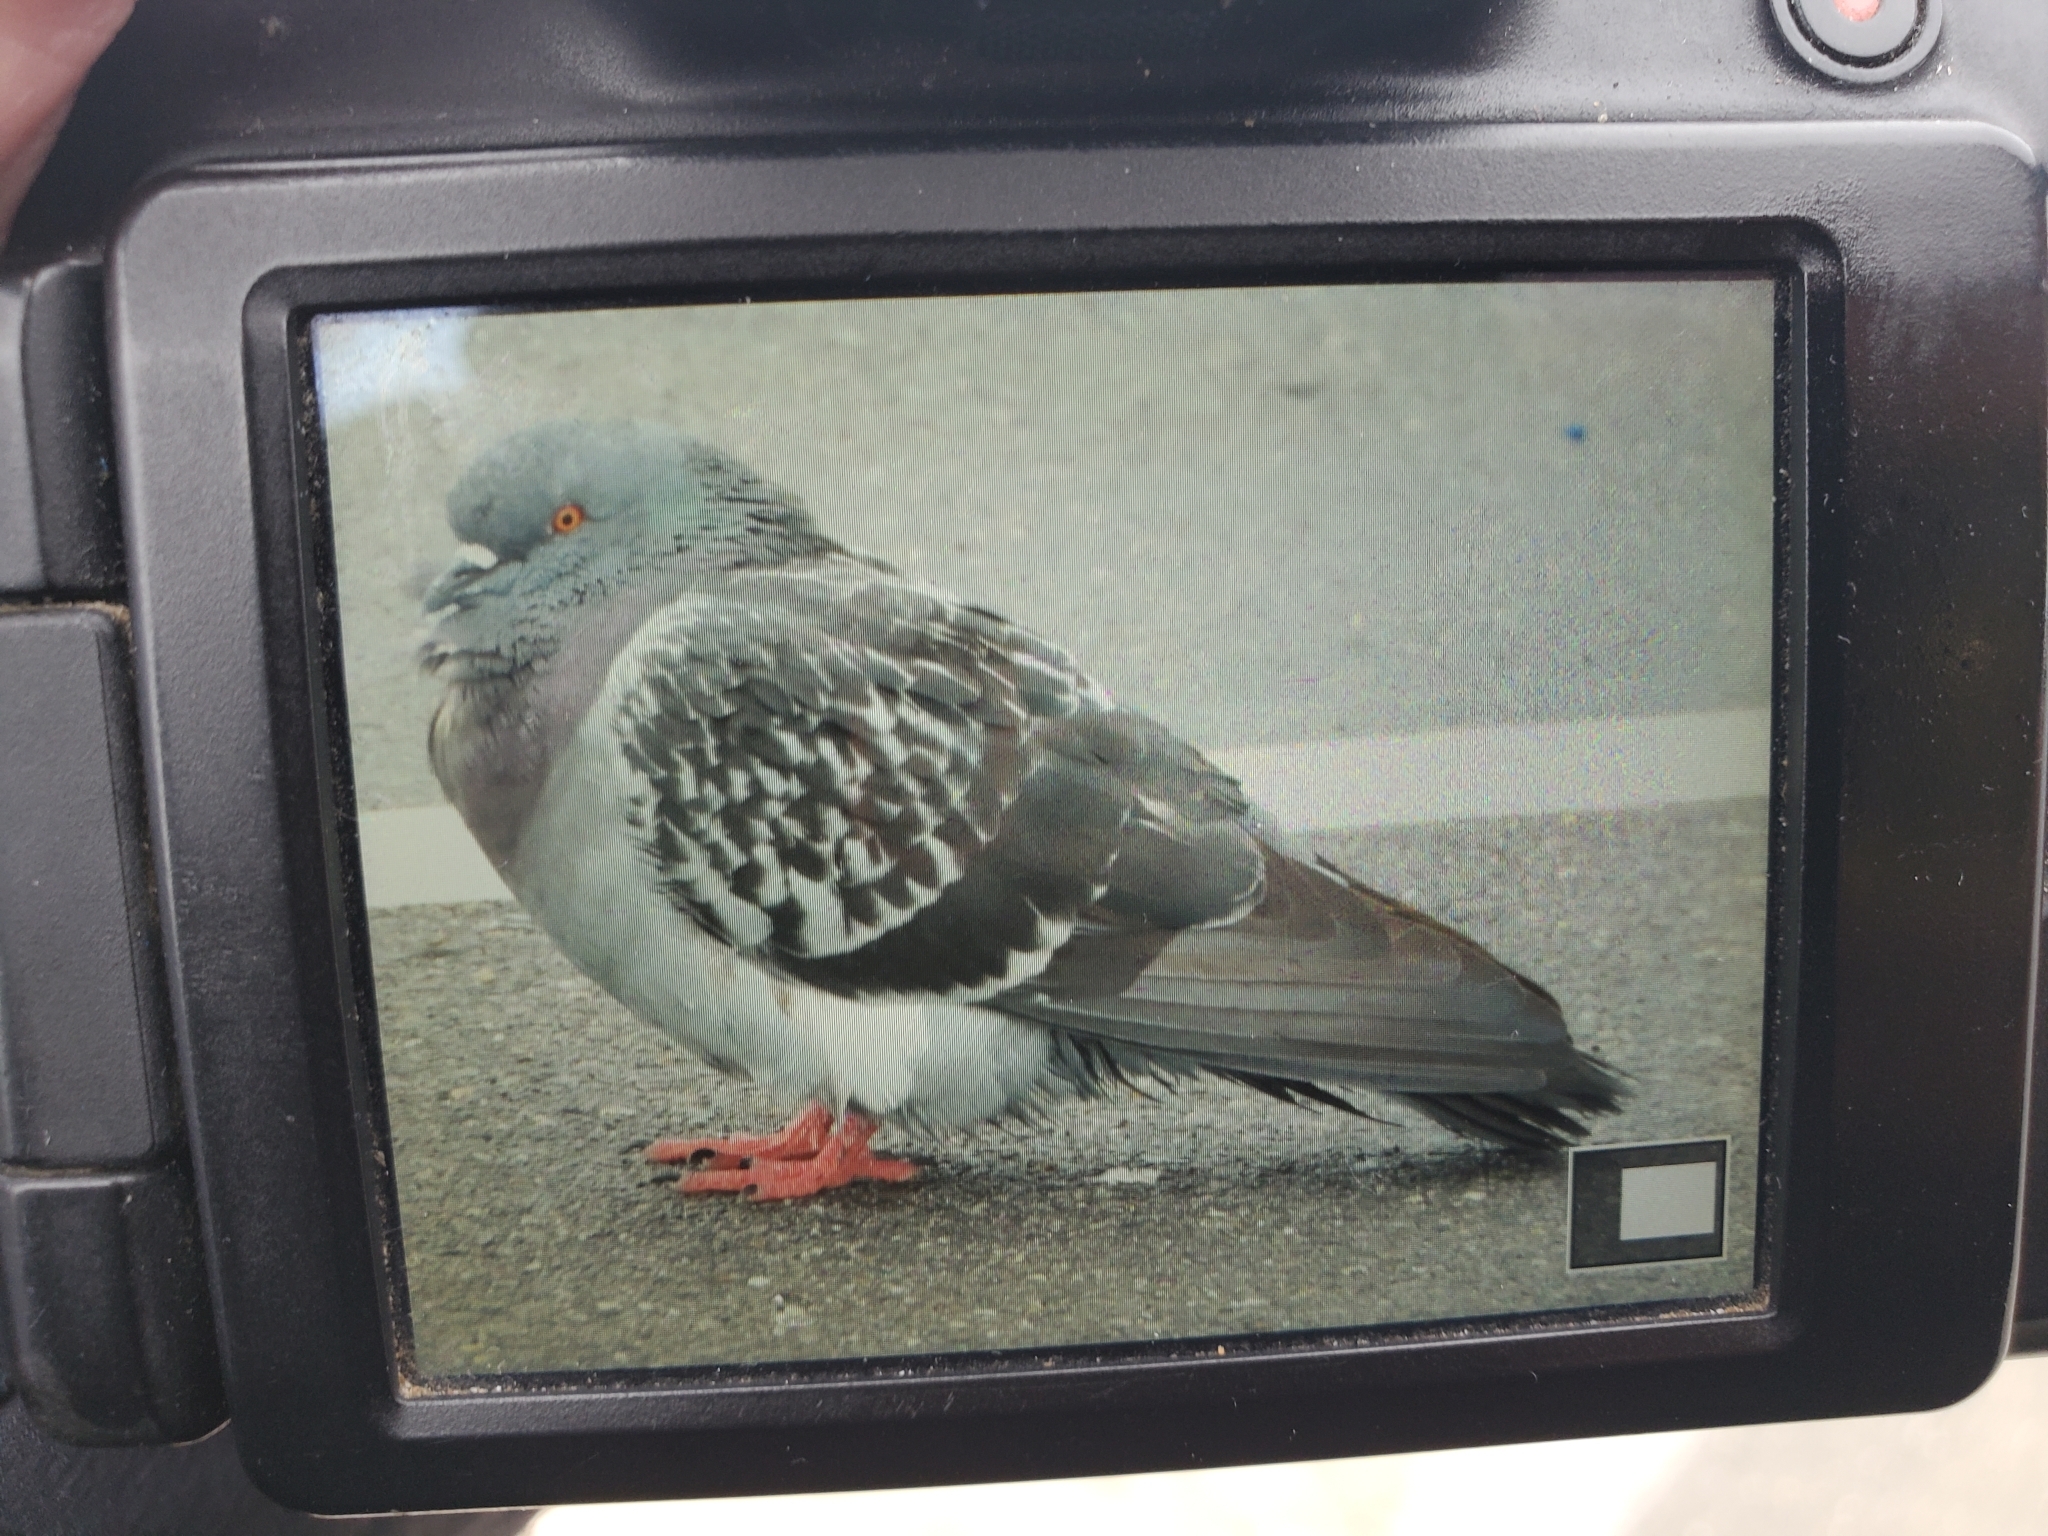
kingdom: Animalia
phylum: Chordata
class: Aves
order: Columbiformes
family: Columbidae
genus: Columba
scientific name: Columba livia
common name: Rock pigeon
